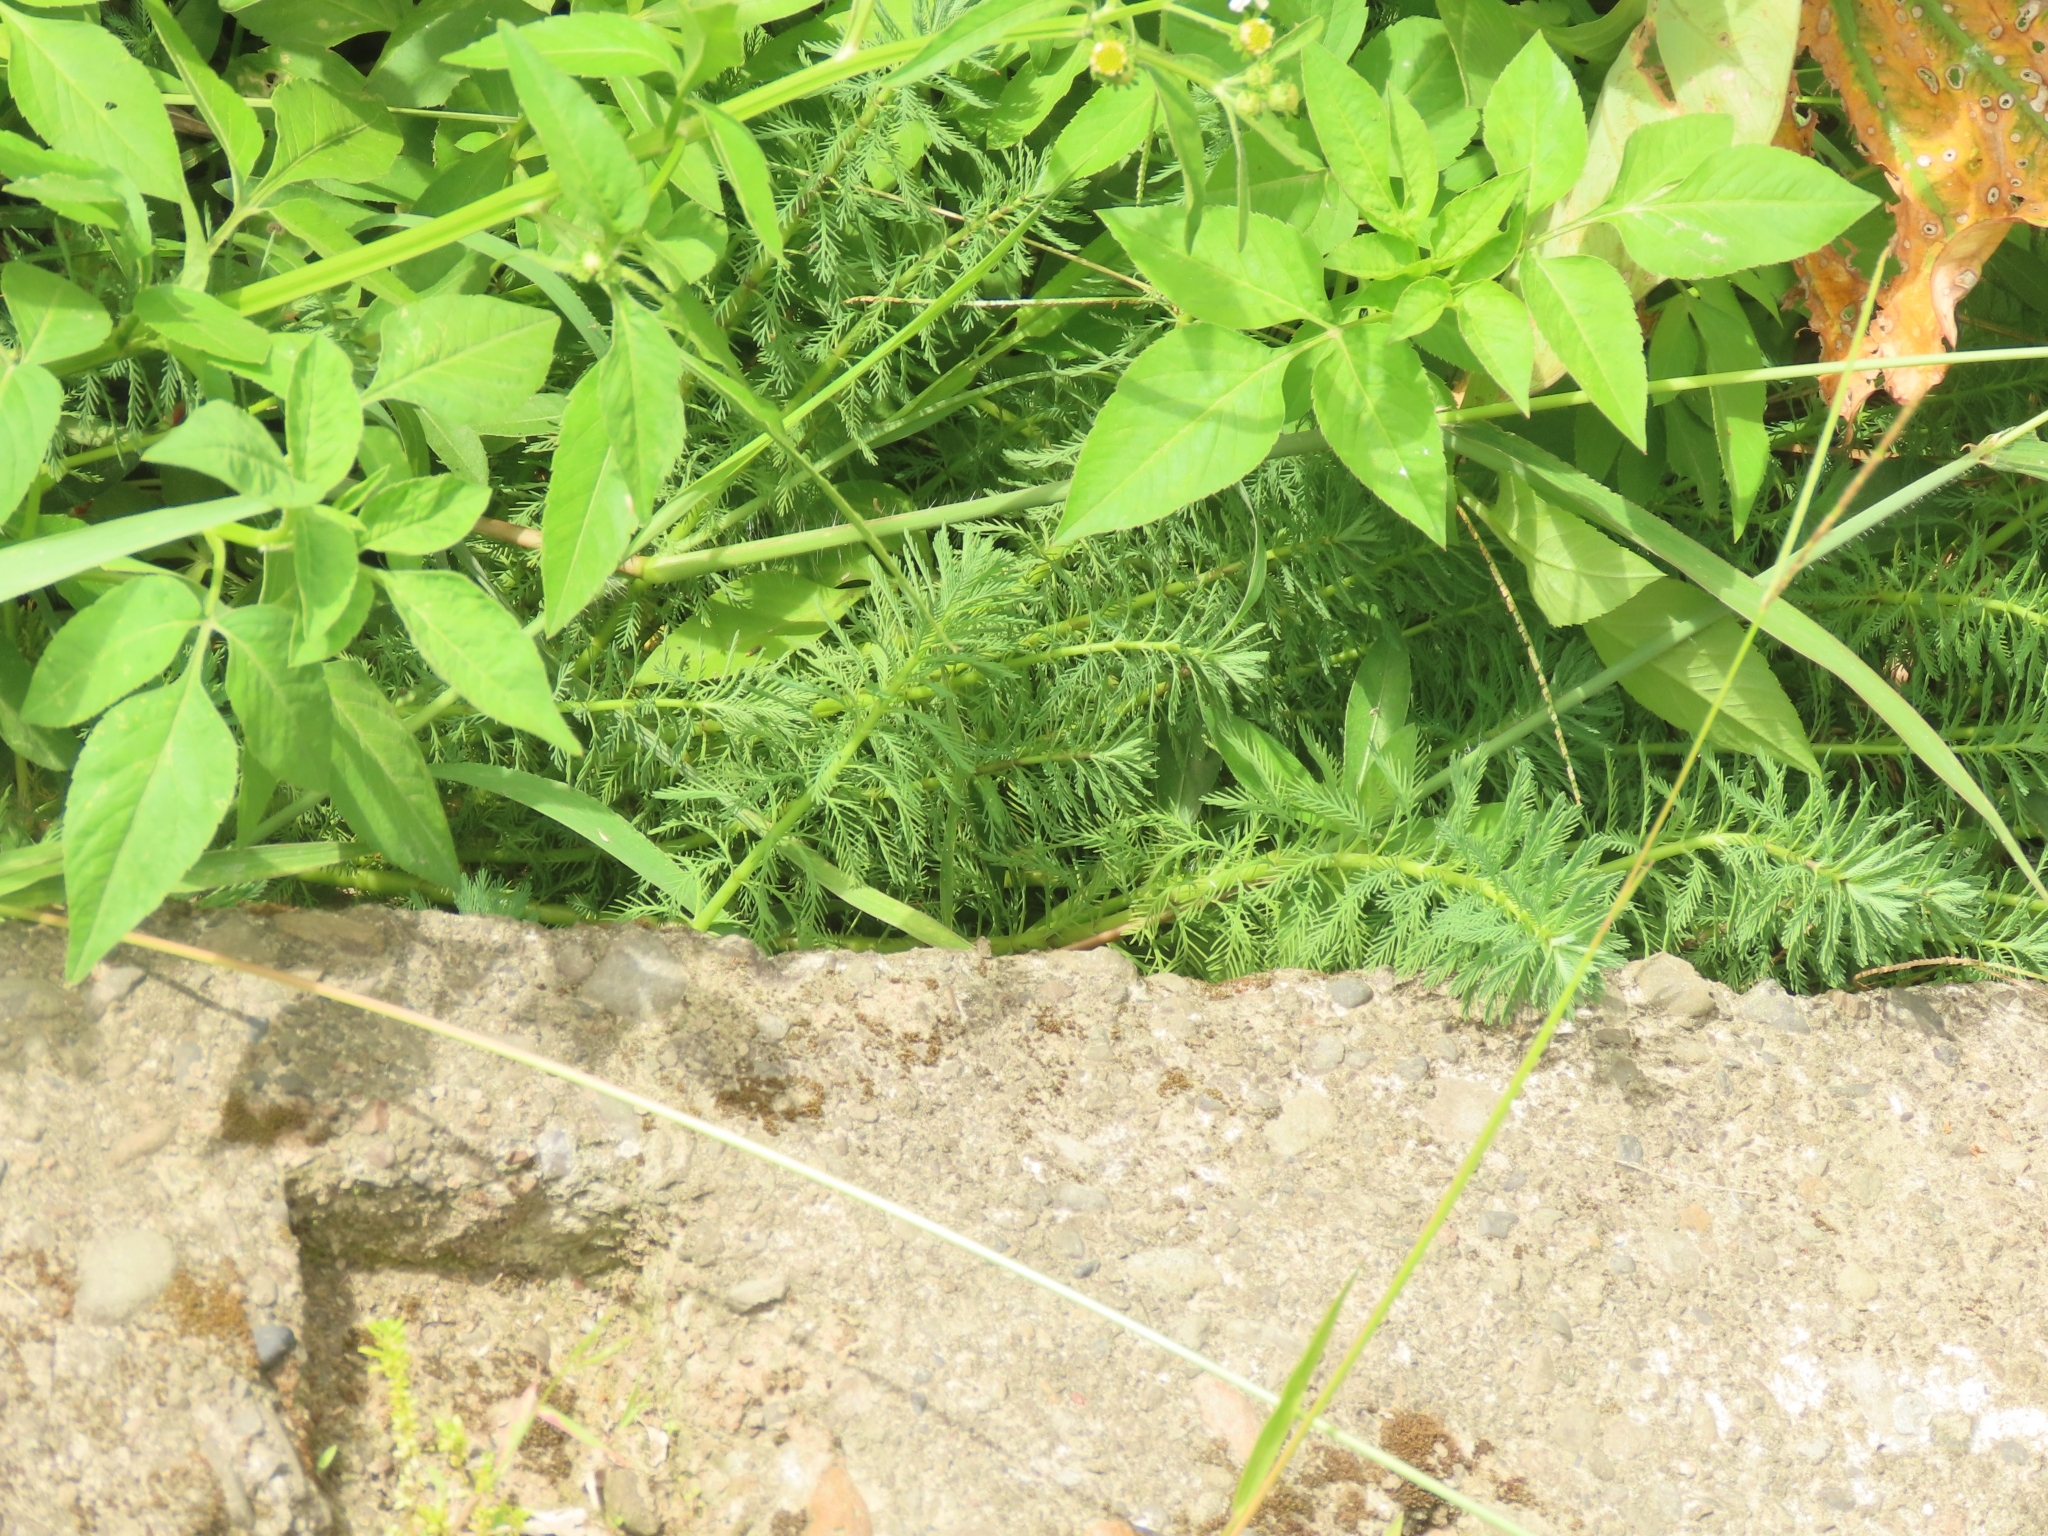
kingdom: Plantae
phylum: Tracheophyta
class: Magnoliopsida
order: Saxifragales
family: Haloragaceae
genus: Myriophyllum
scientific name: Myriophyllum aquaticum
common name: Parrot's feather
